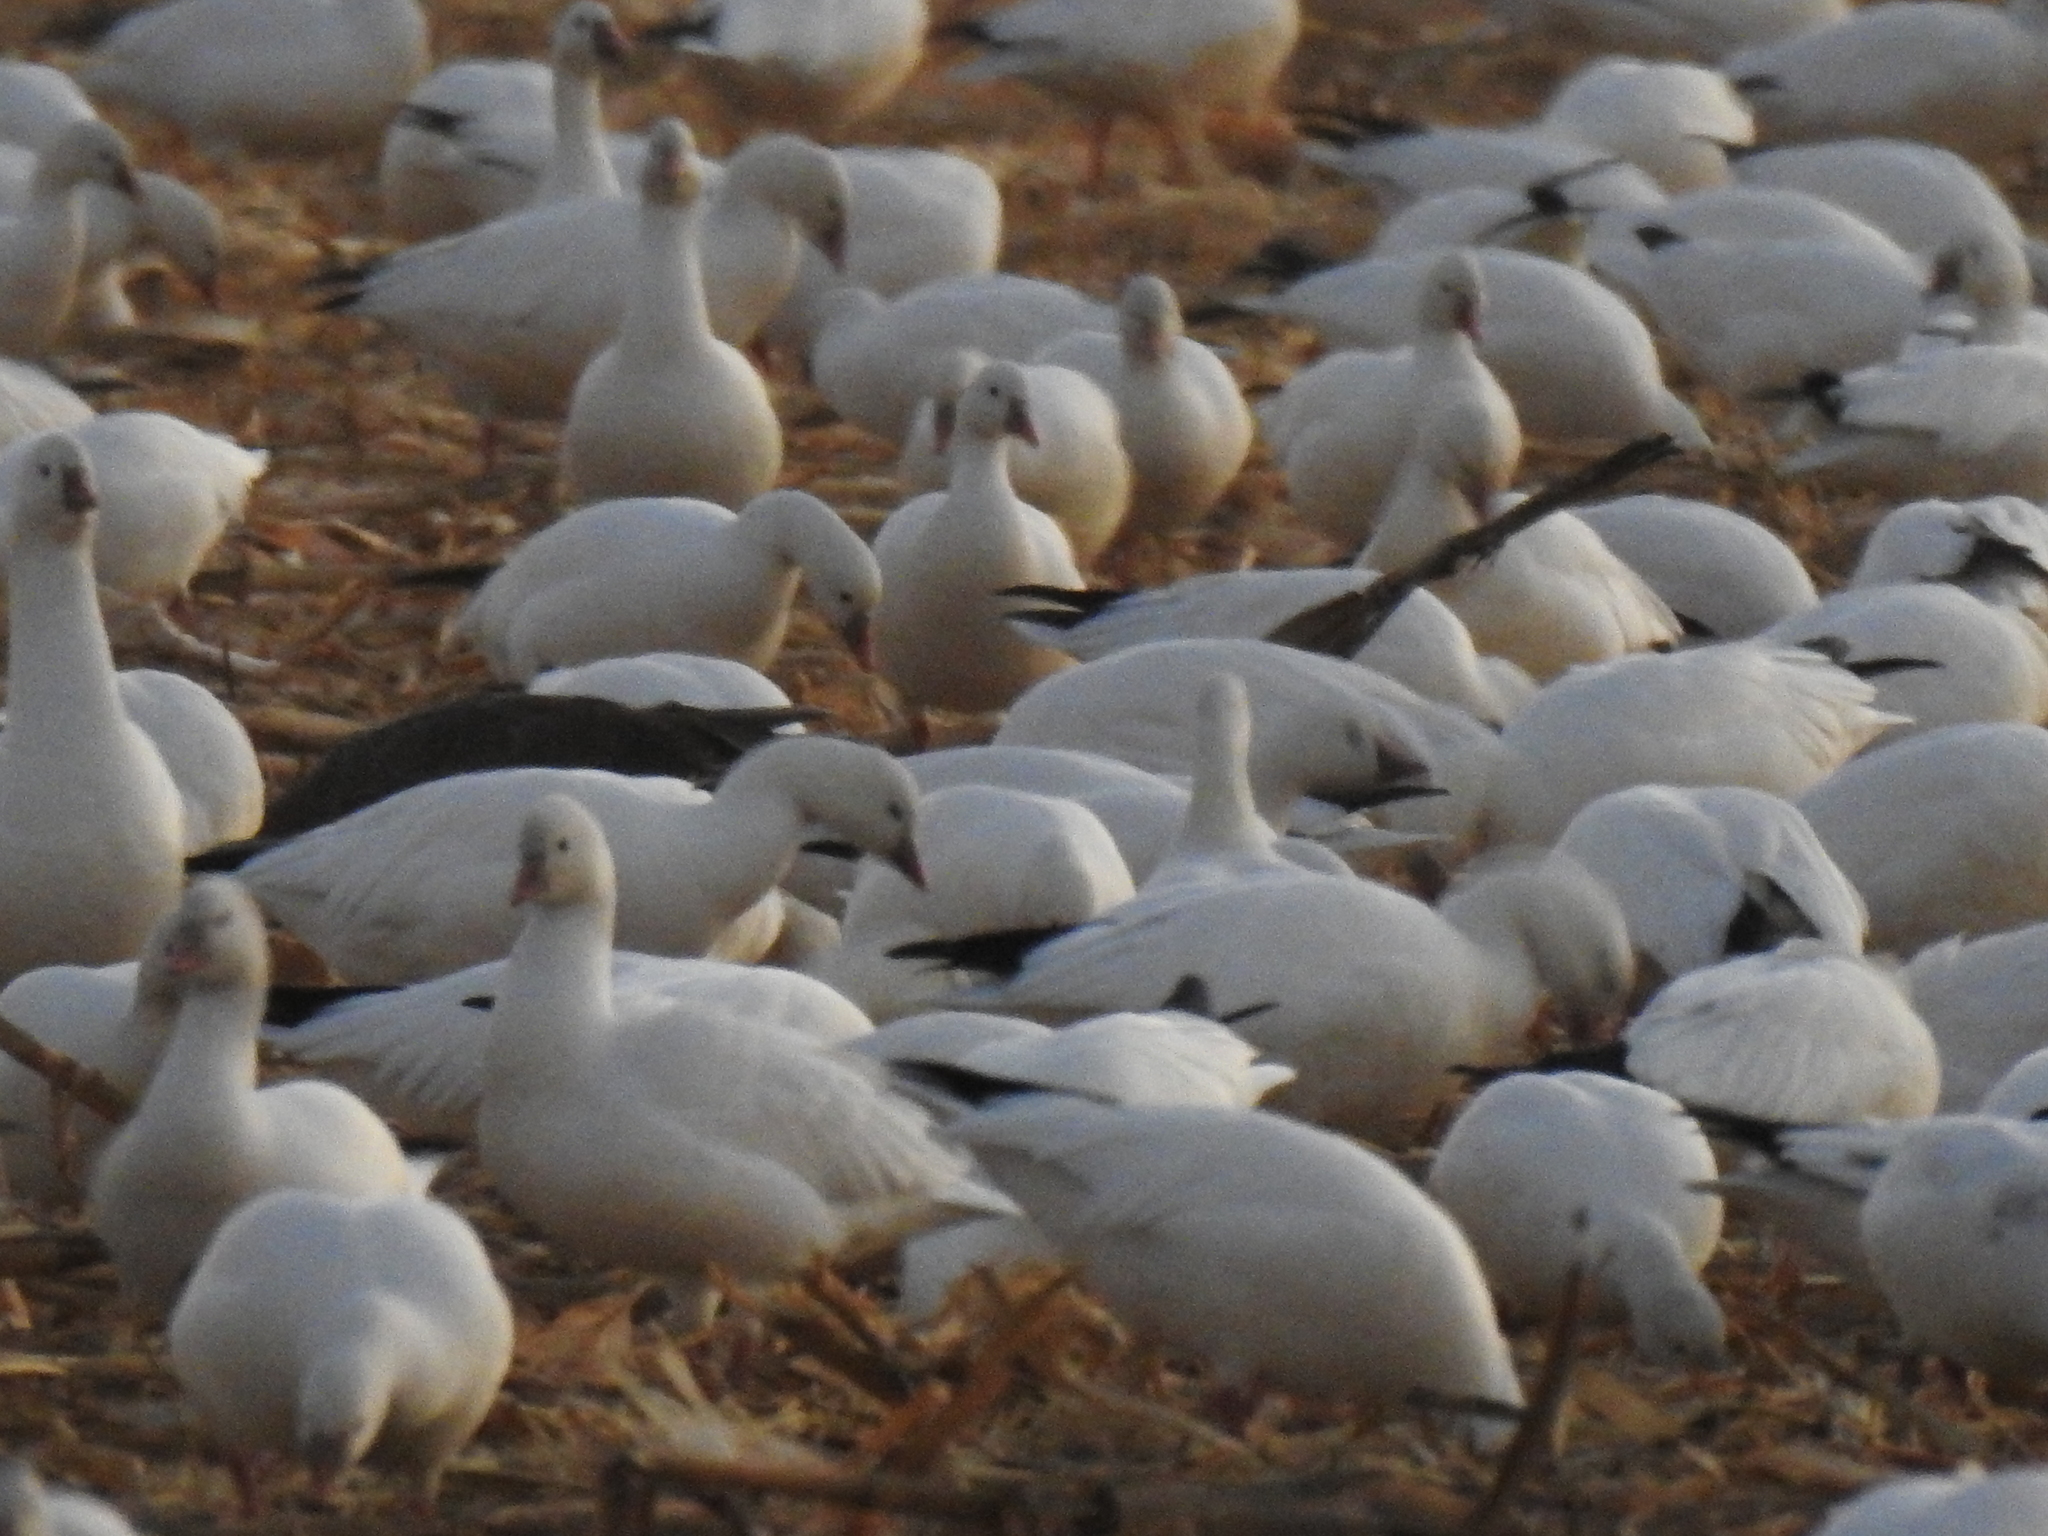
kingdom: Animalia
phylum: Chordata
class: Aves
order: Anseriformes
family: Anatidae
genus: Anser
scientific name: Anser caerulescens
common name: Snow goose
